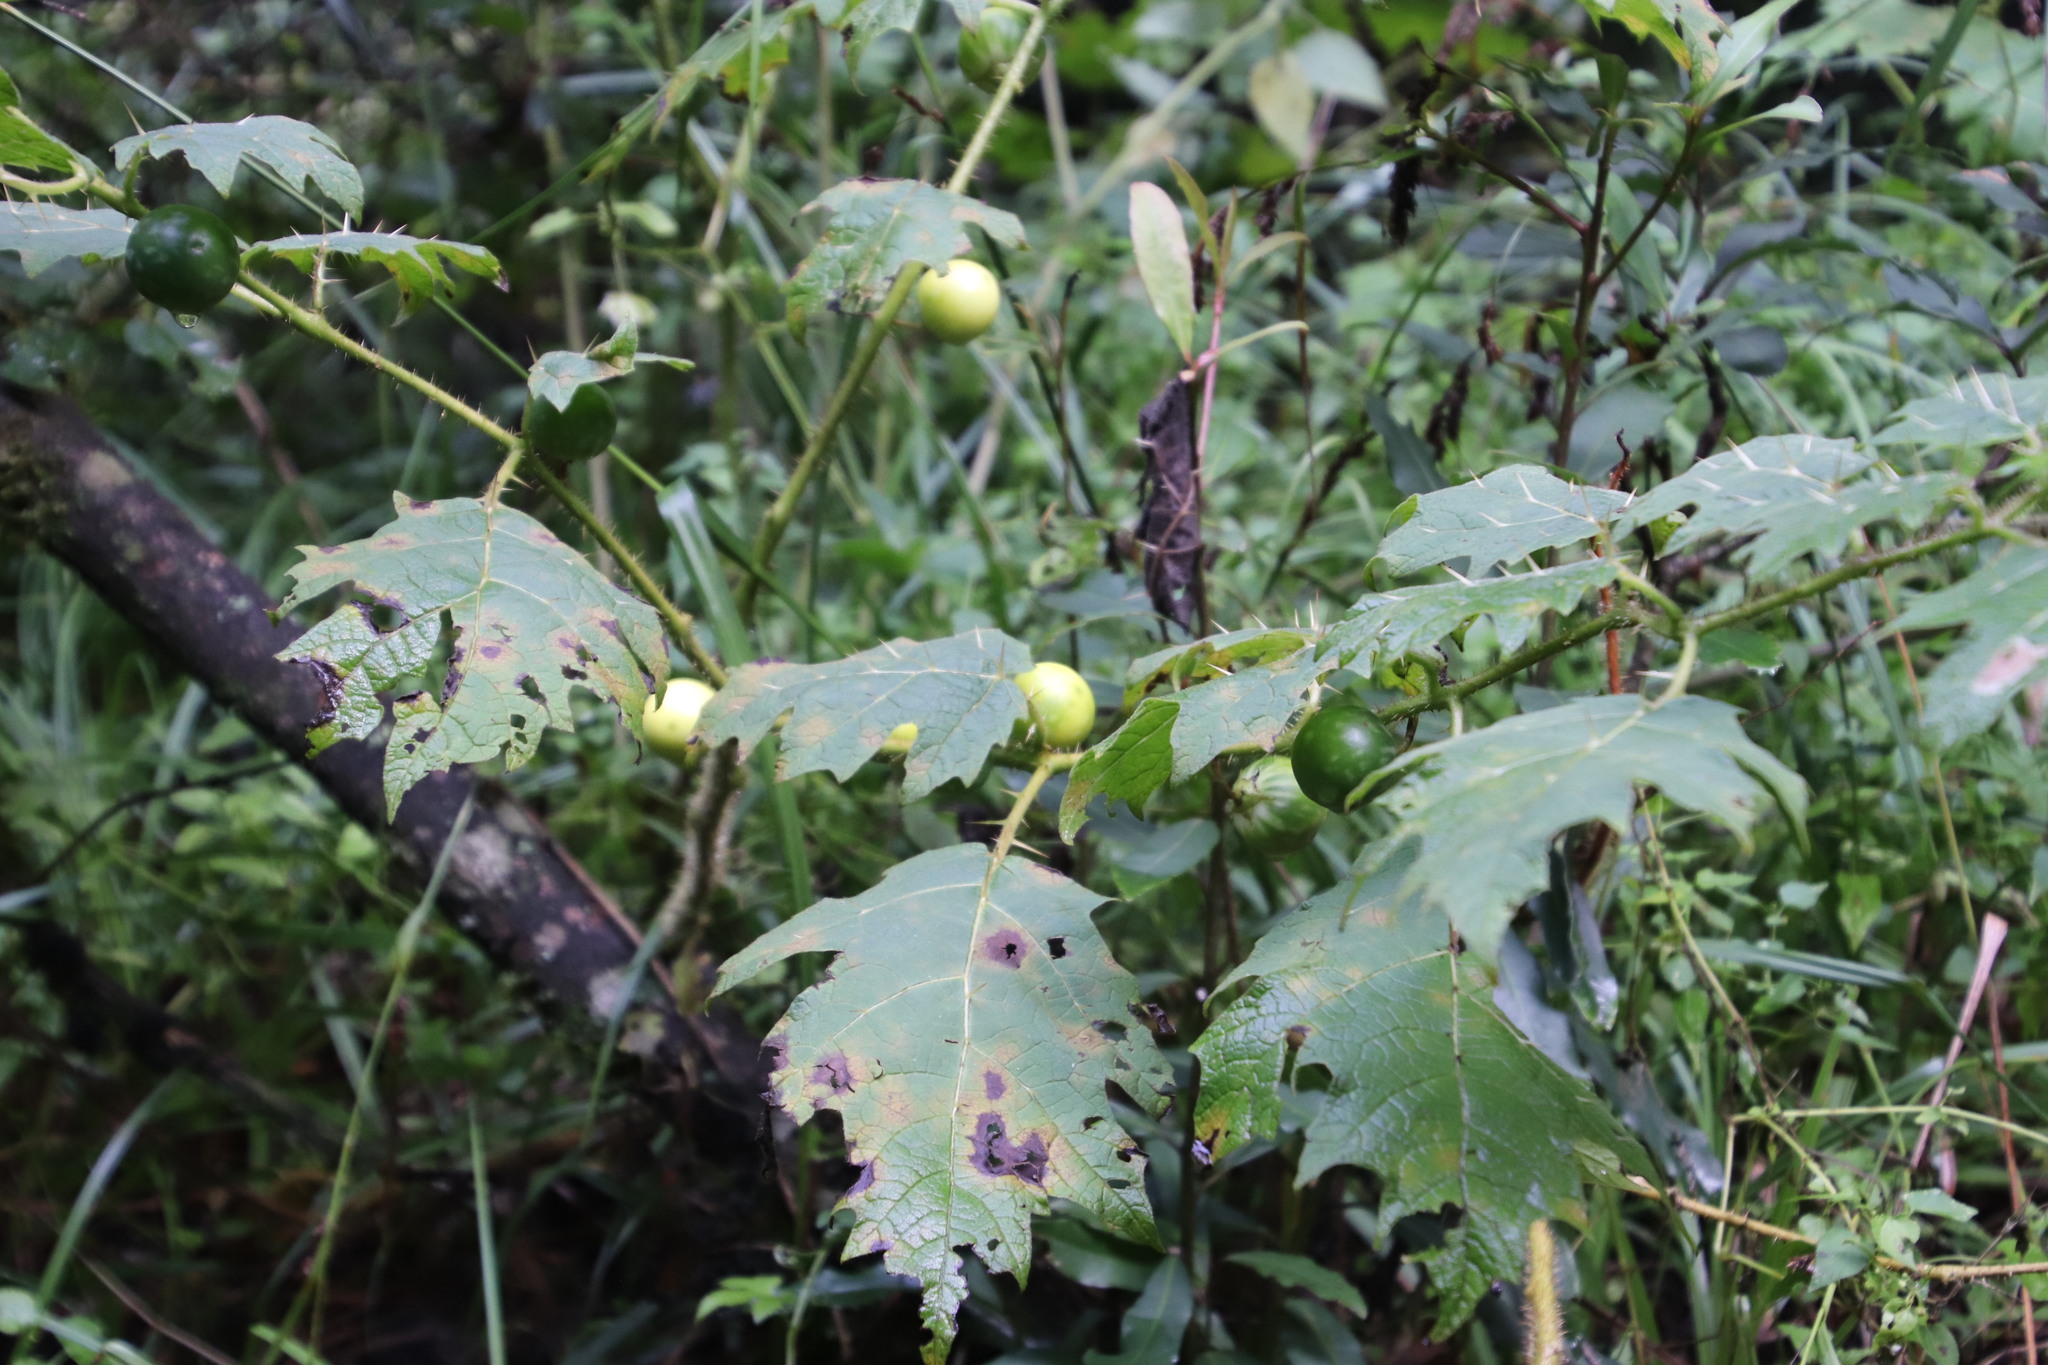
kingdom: Plantae
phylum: Tracheophyta
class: Magnoliopsida
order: Solanales
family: Solanaceae
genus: Solanum
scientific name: Solanum aculeatissimum
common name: Dutch eggplant
